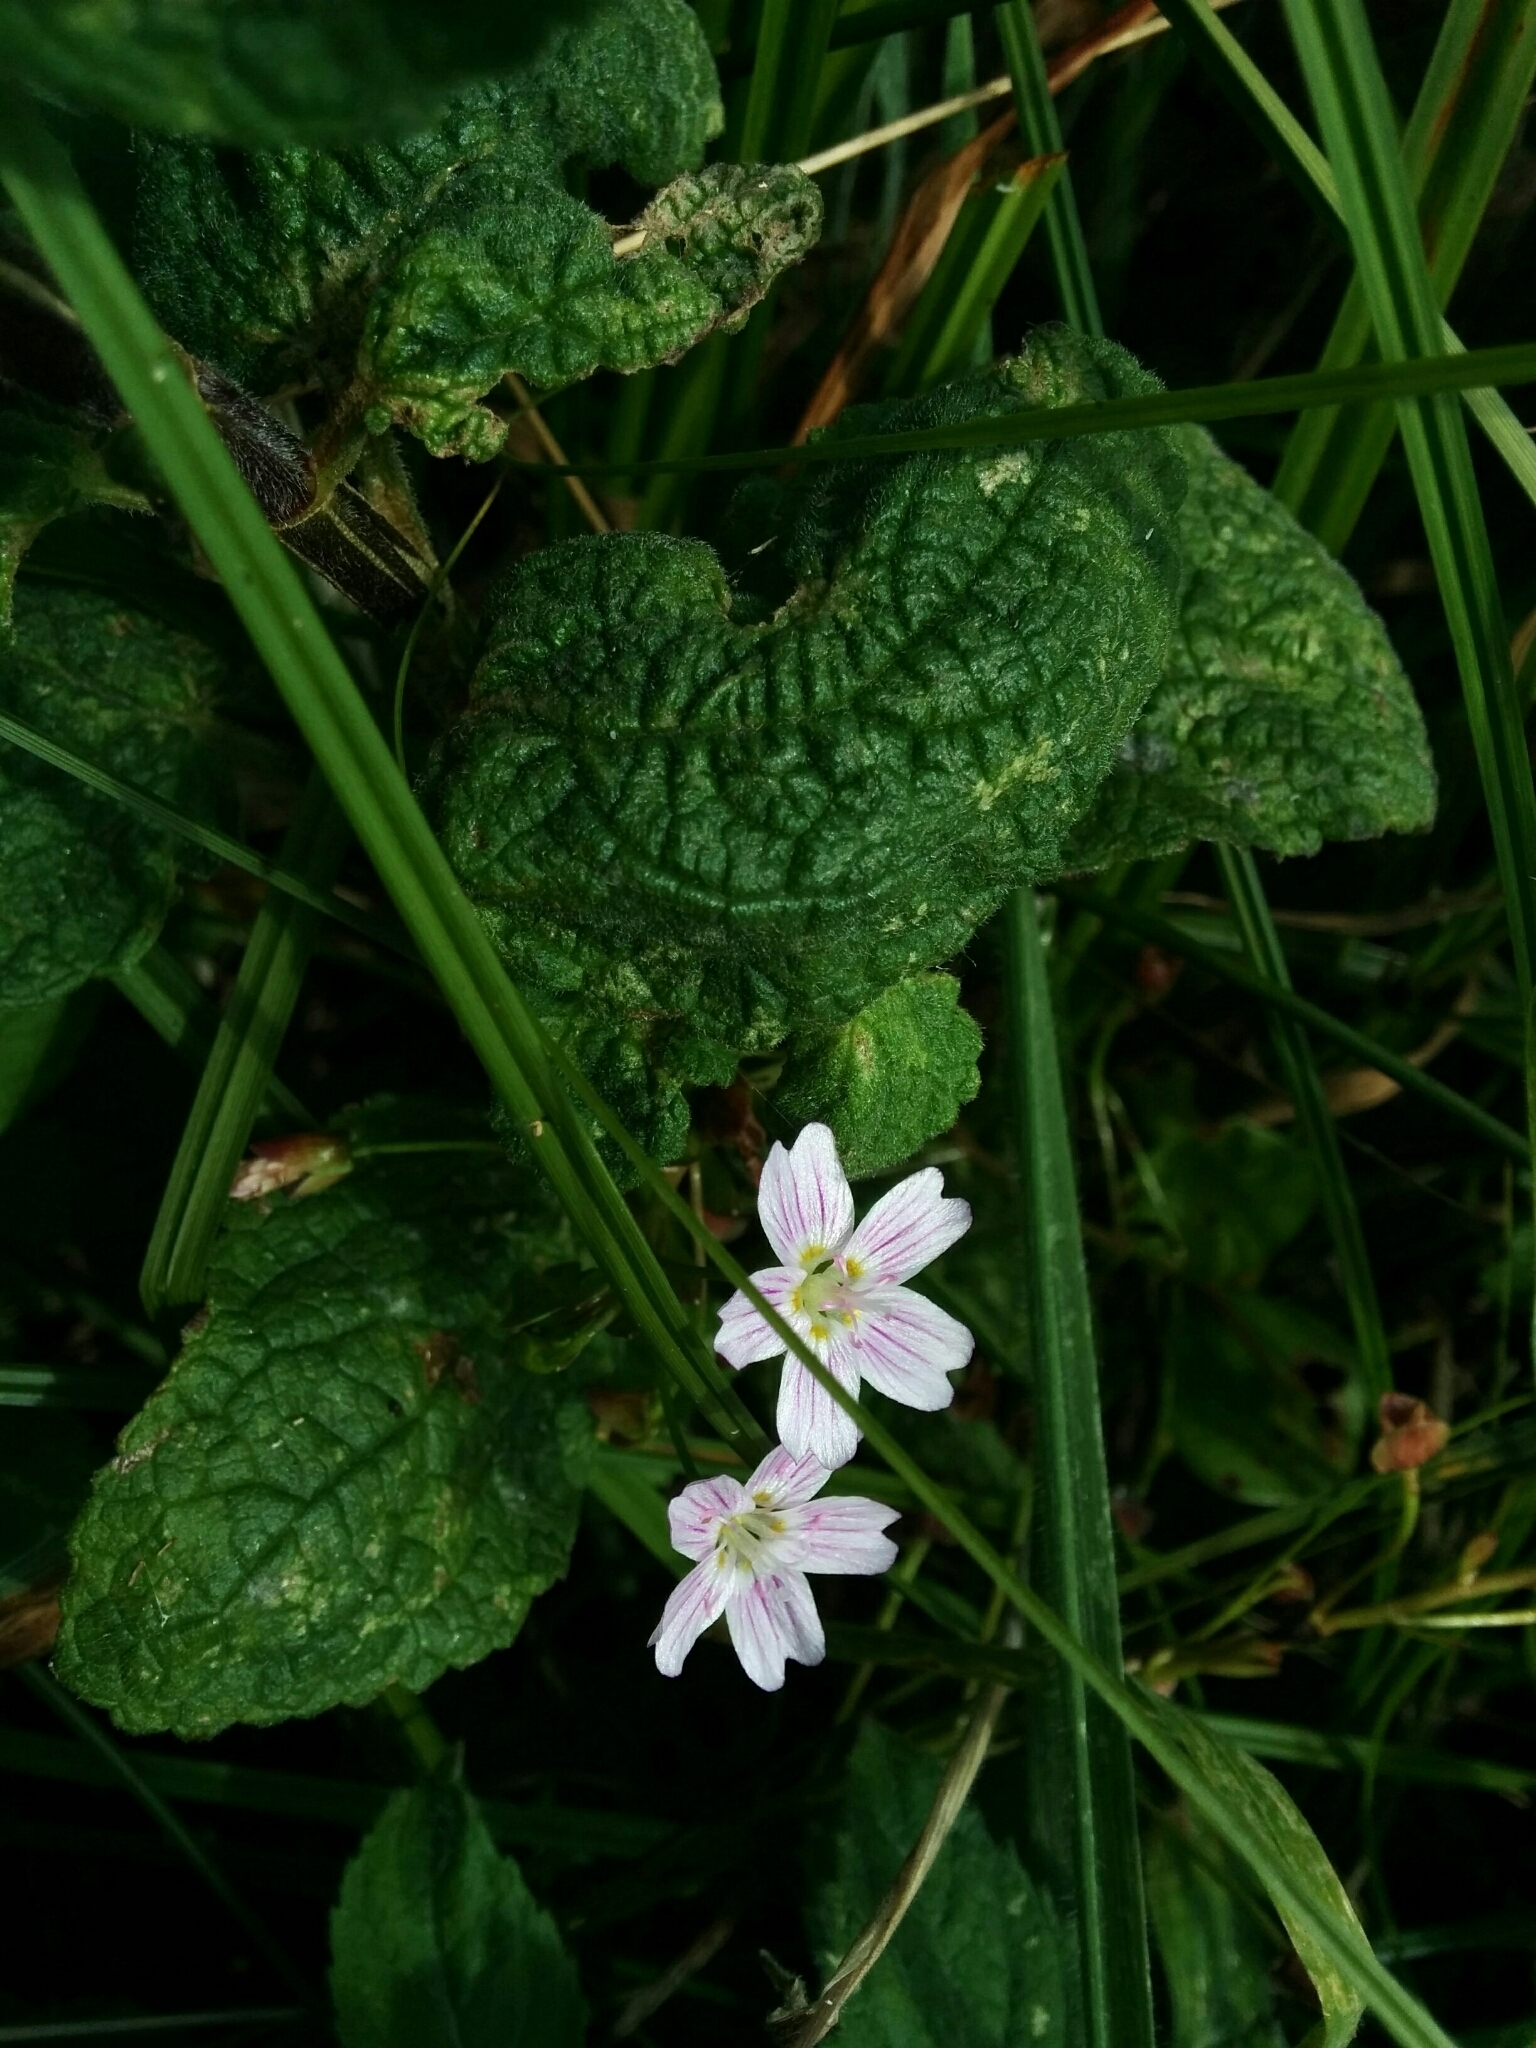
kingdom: Plantae
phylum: Tracheophyta
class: Magnoliopsida
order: Caryophyllales
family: Montiaceae
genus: Claytonia
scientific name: Claytonia sibirica
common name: Pink purslane
